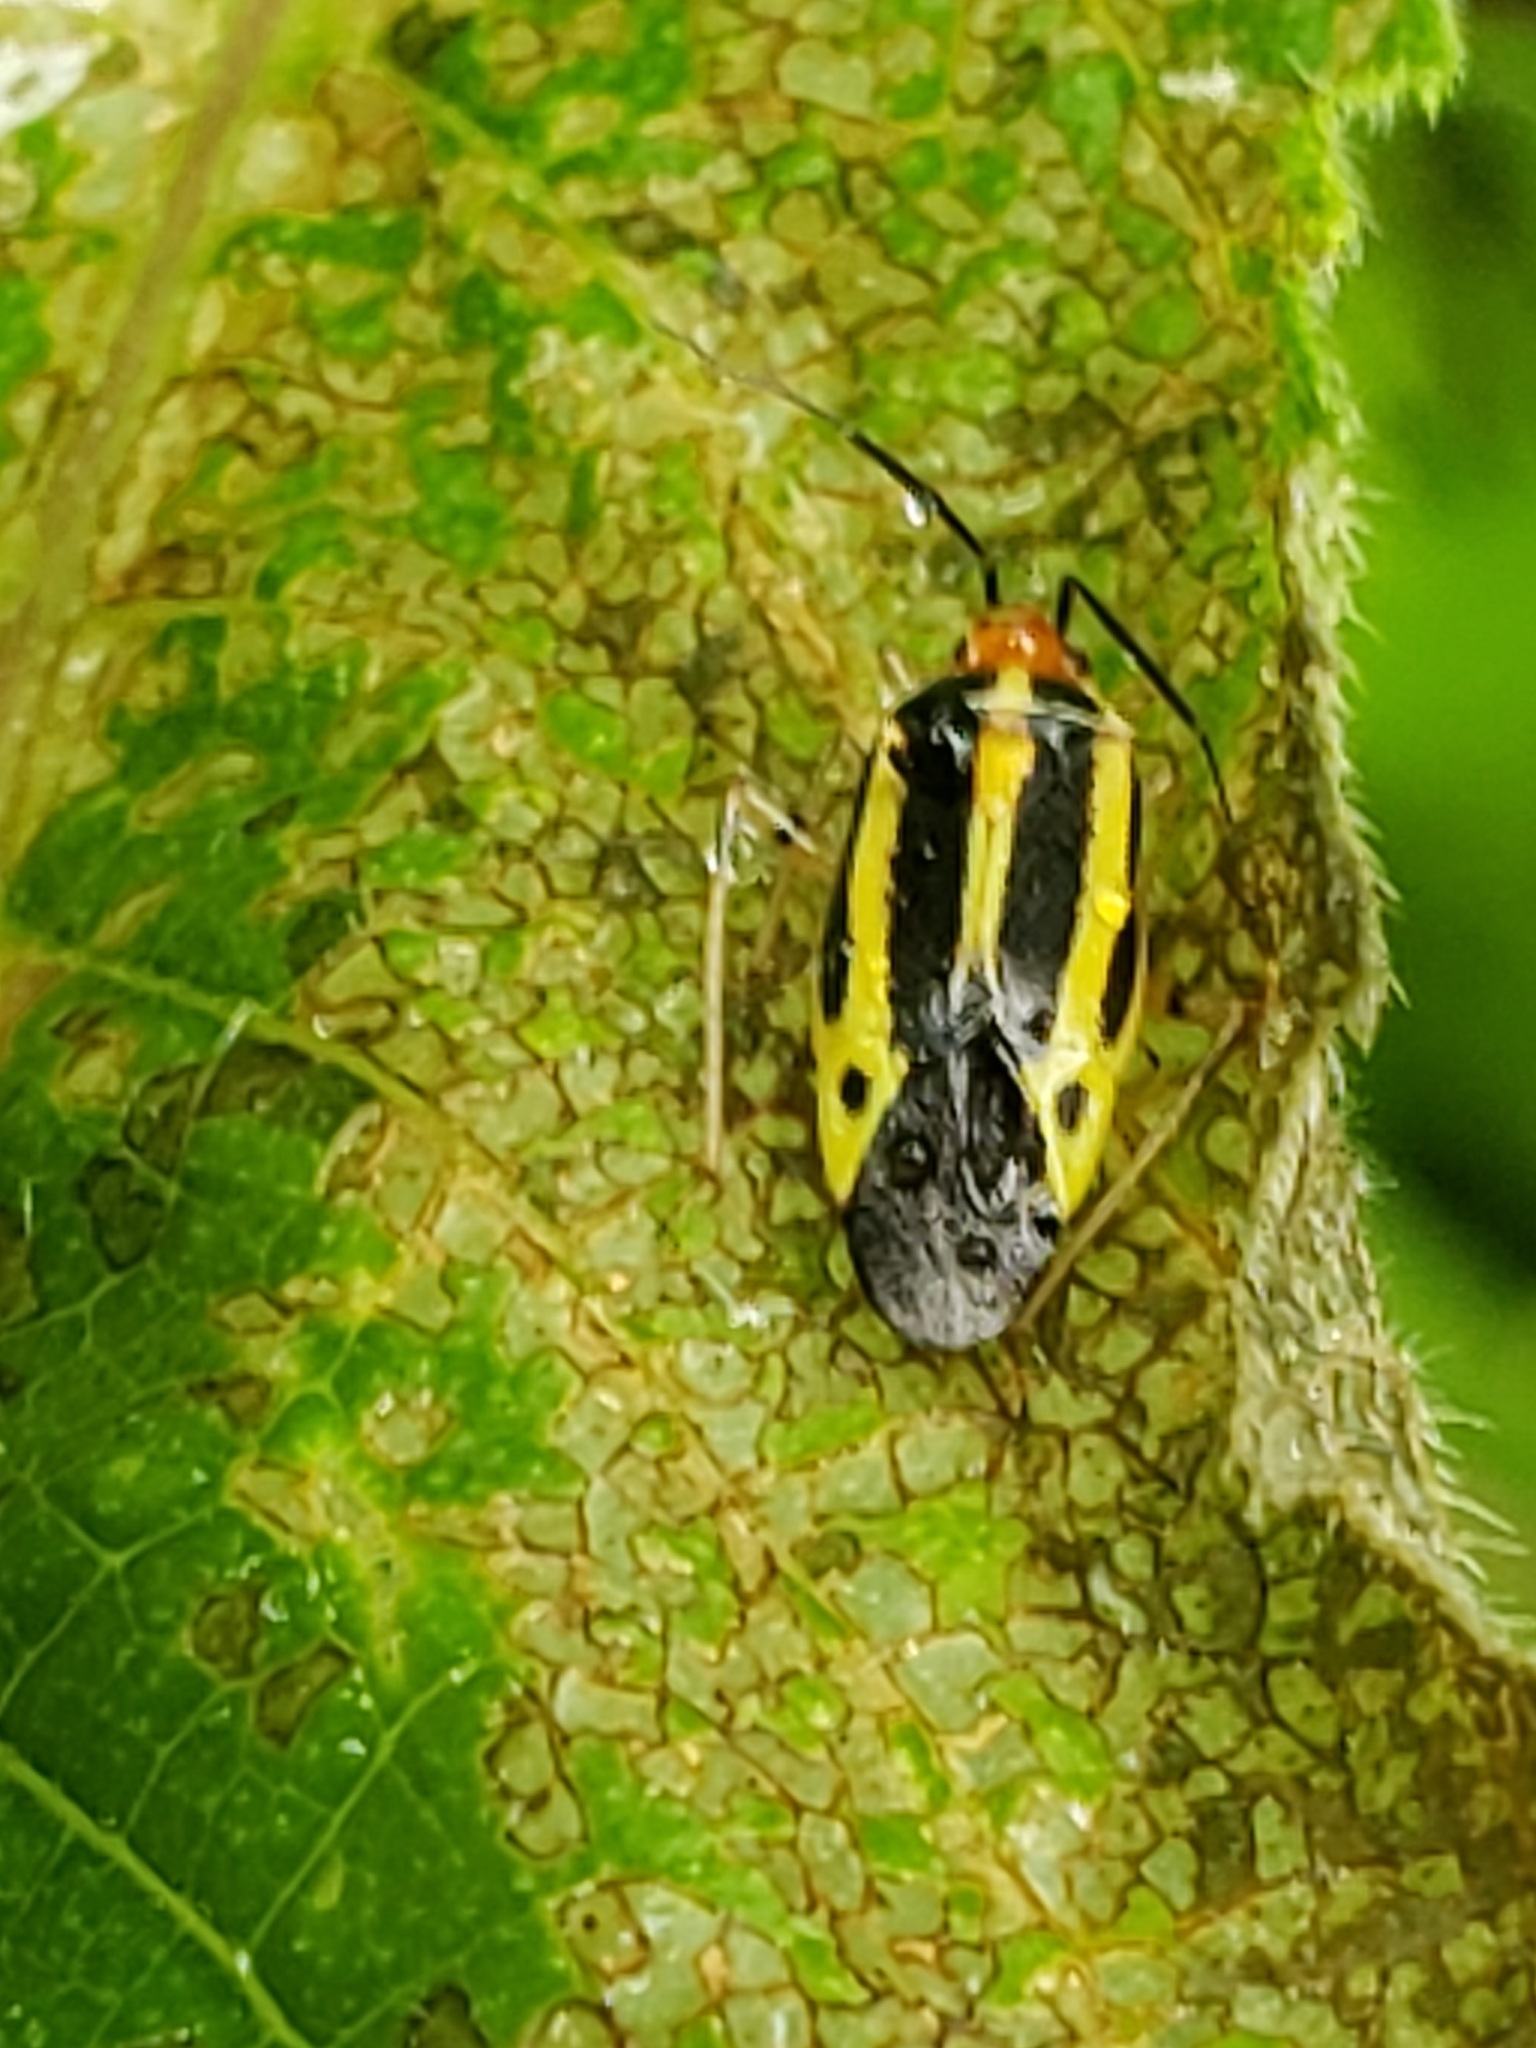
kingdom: Animalia
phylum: Arthropoda
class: Insecta
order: Hemiptera
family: Miridae
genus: Poecilocapsus
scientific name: Poecilocapsus lineatus
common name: Four-lined plant bug
